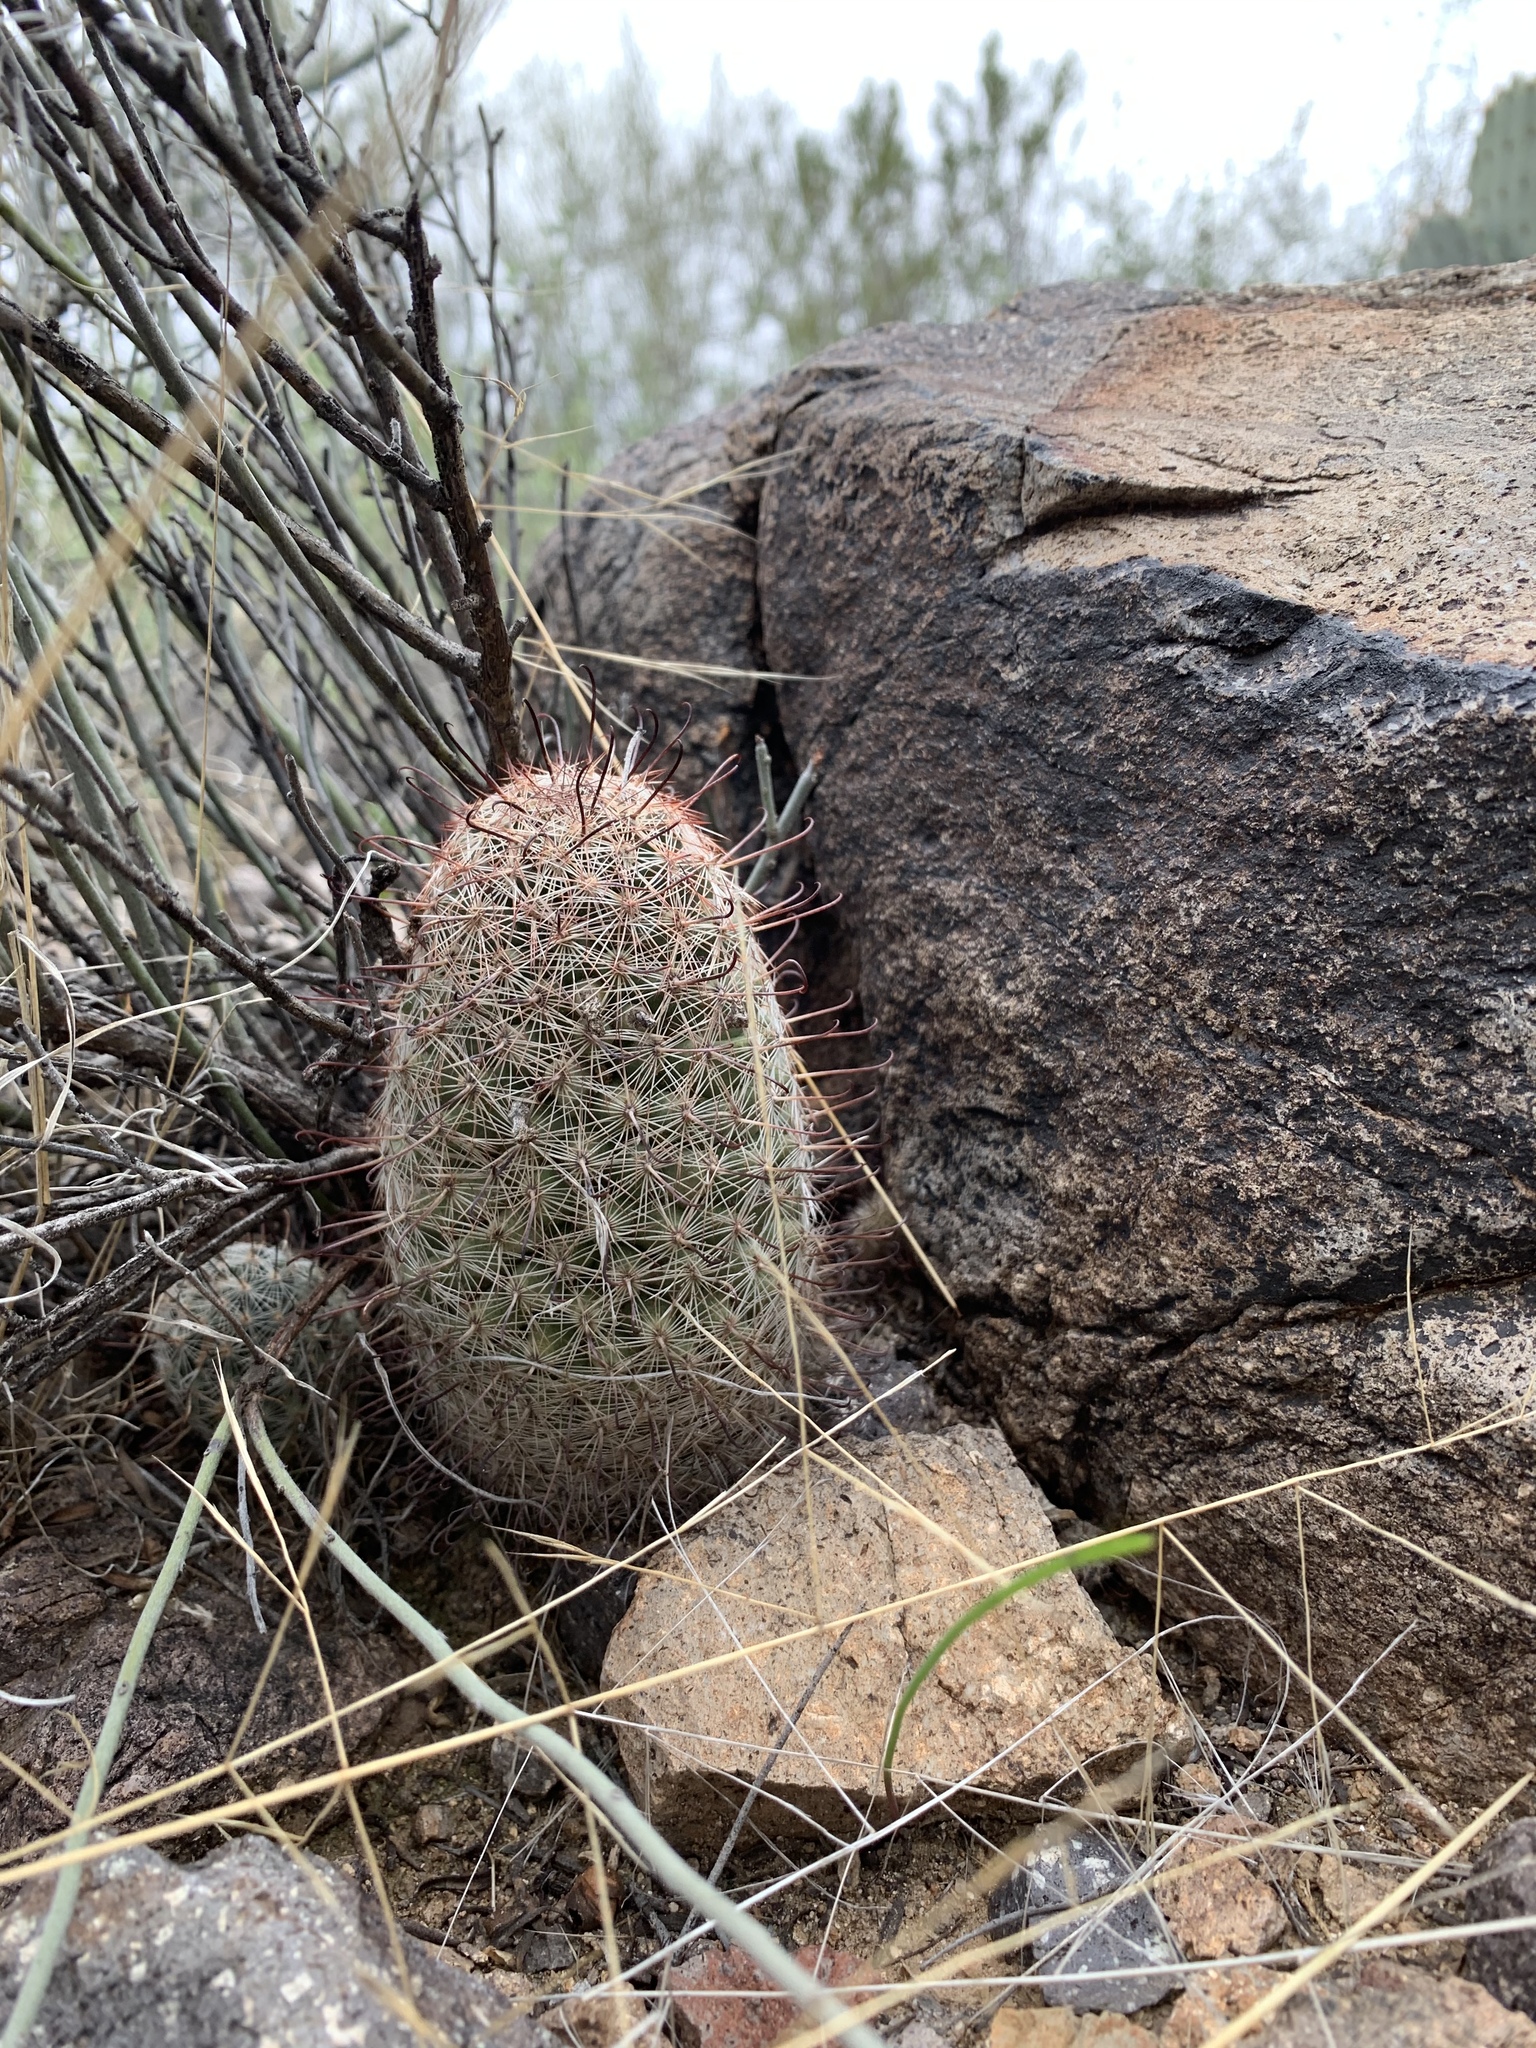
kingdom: Plantae
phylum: Tracheophyta
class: Magnoliopsida
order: Caryophyllales
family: Cactaceae
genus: Cochemiea
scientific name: Cochemiea grahamii
